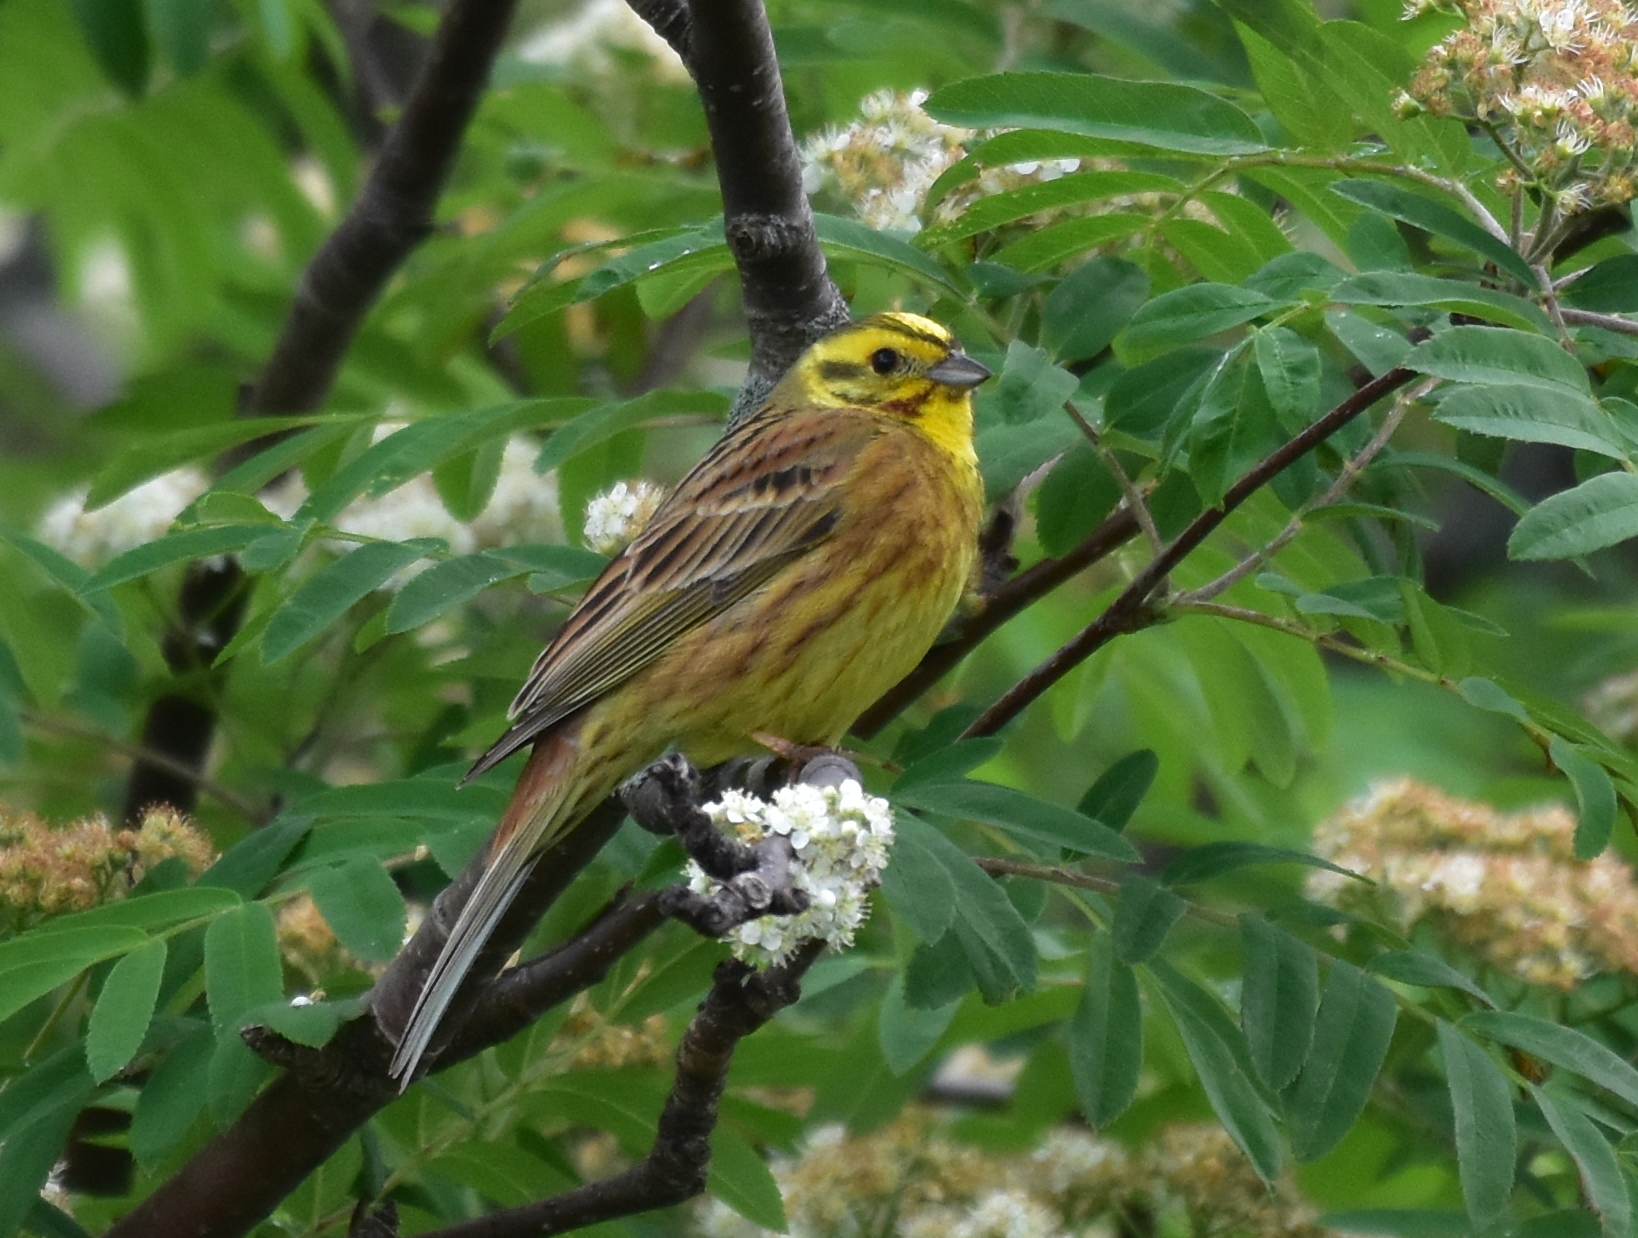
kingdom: Animalia
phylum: Chordata
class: Aves
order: Passeriformes
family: Emberizidae
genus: Emberiza
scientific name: Emberiza citrinella
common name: Yellowhammer
